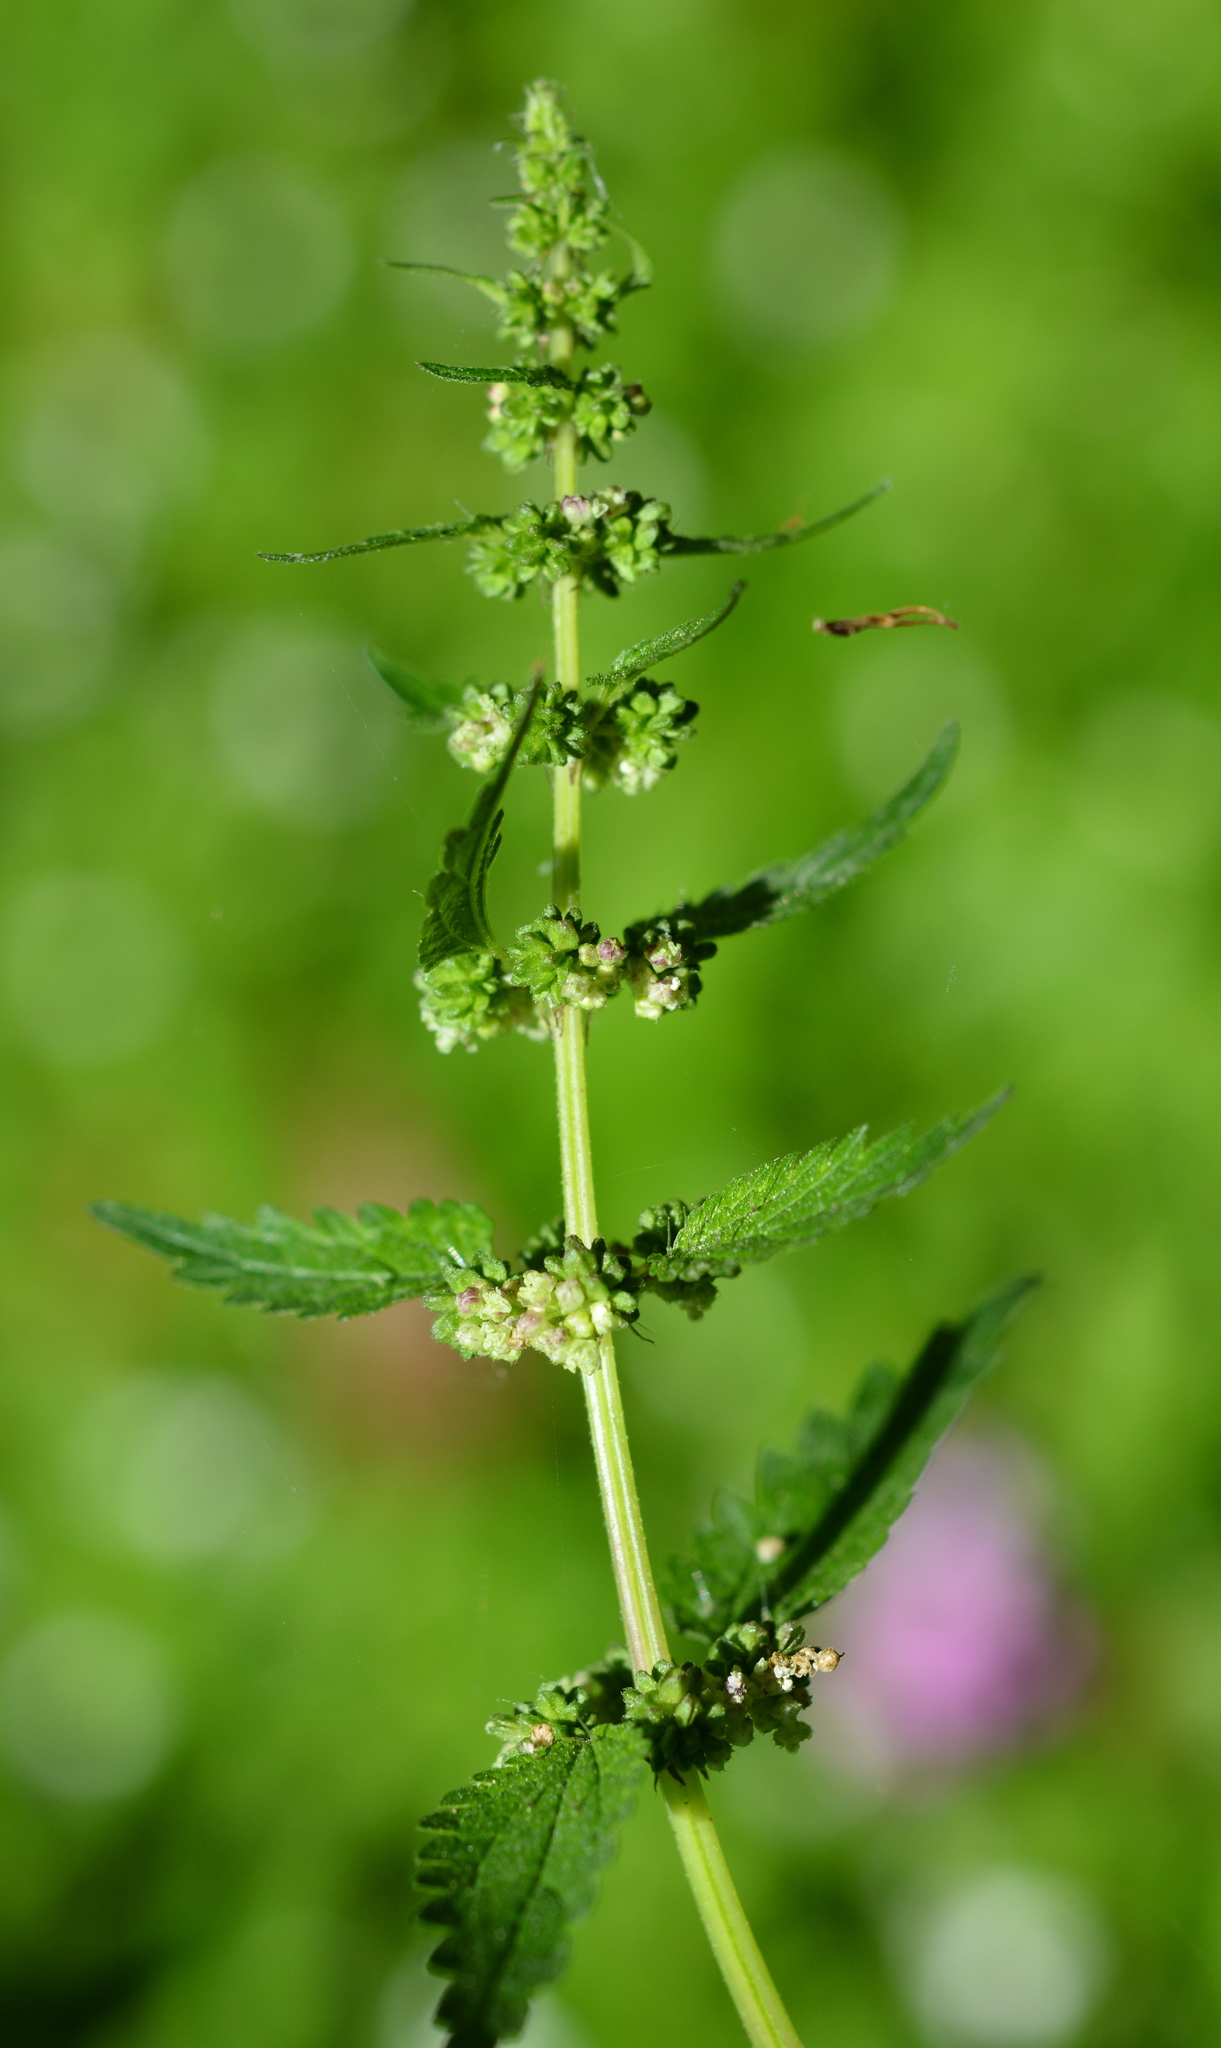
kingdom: Plantae
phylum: Tracheophyta
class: Magnoliopsida
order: Rosales
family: Urticaceae
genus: Urtica
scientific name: Urtica chamaedryoides
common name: Heart-leaf nettle
